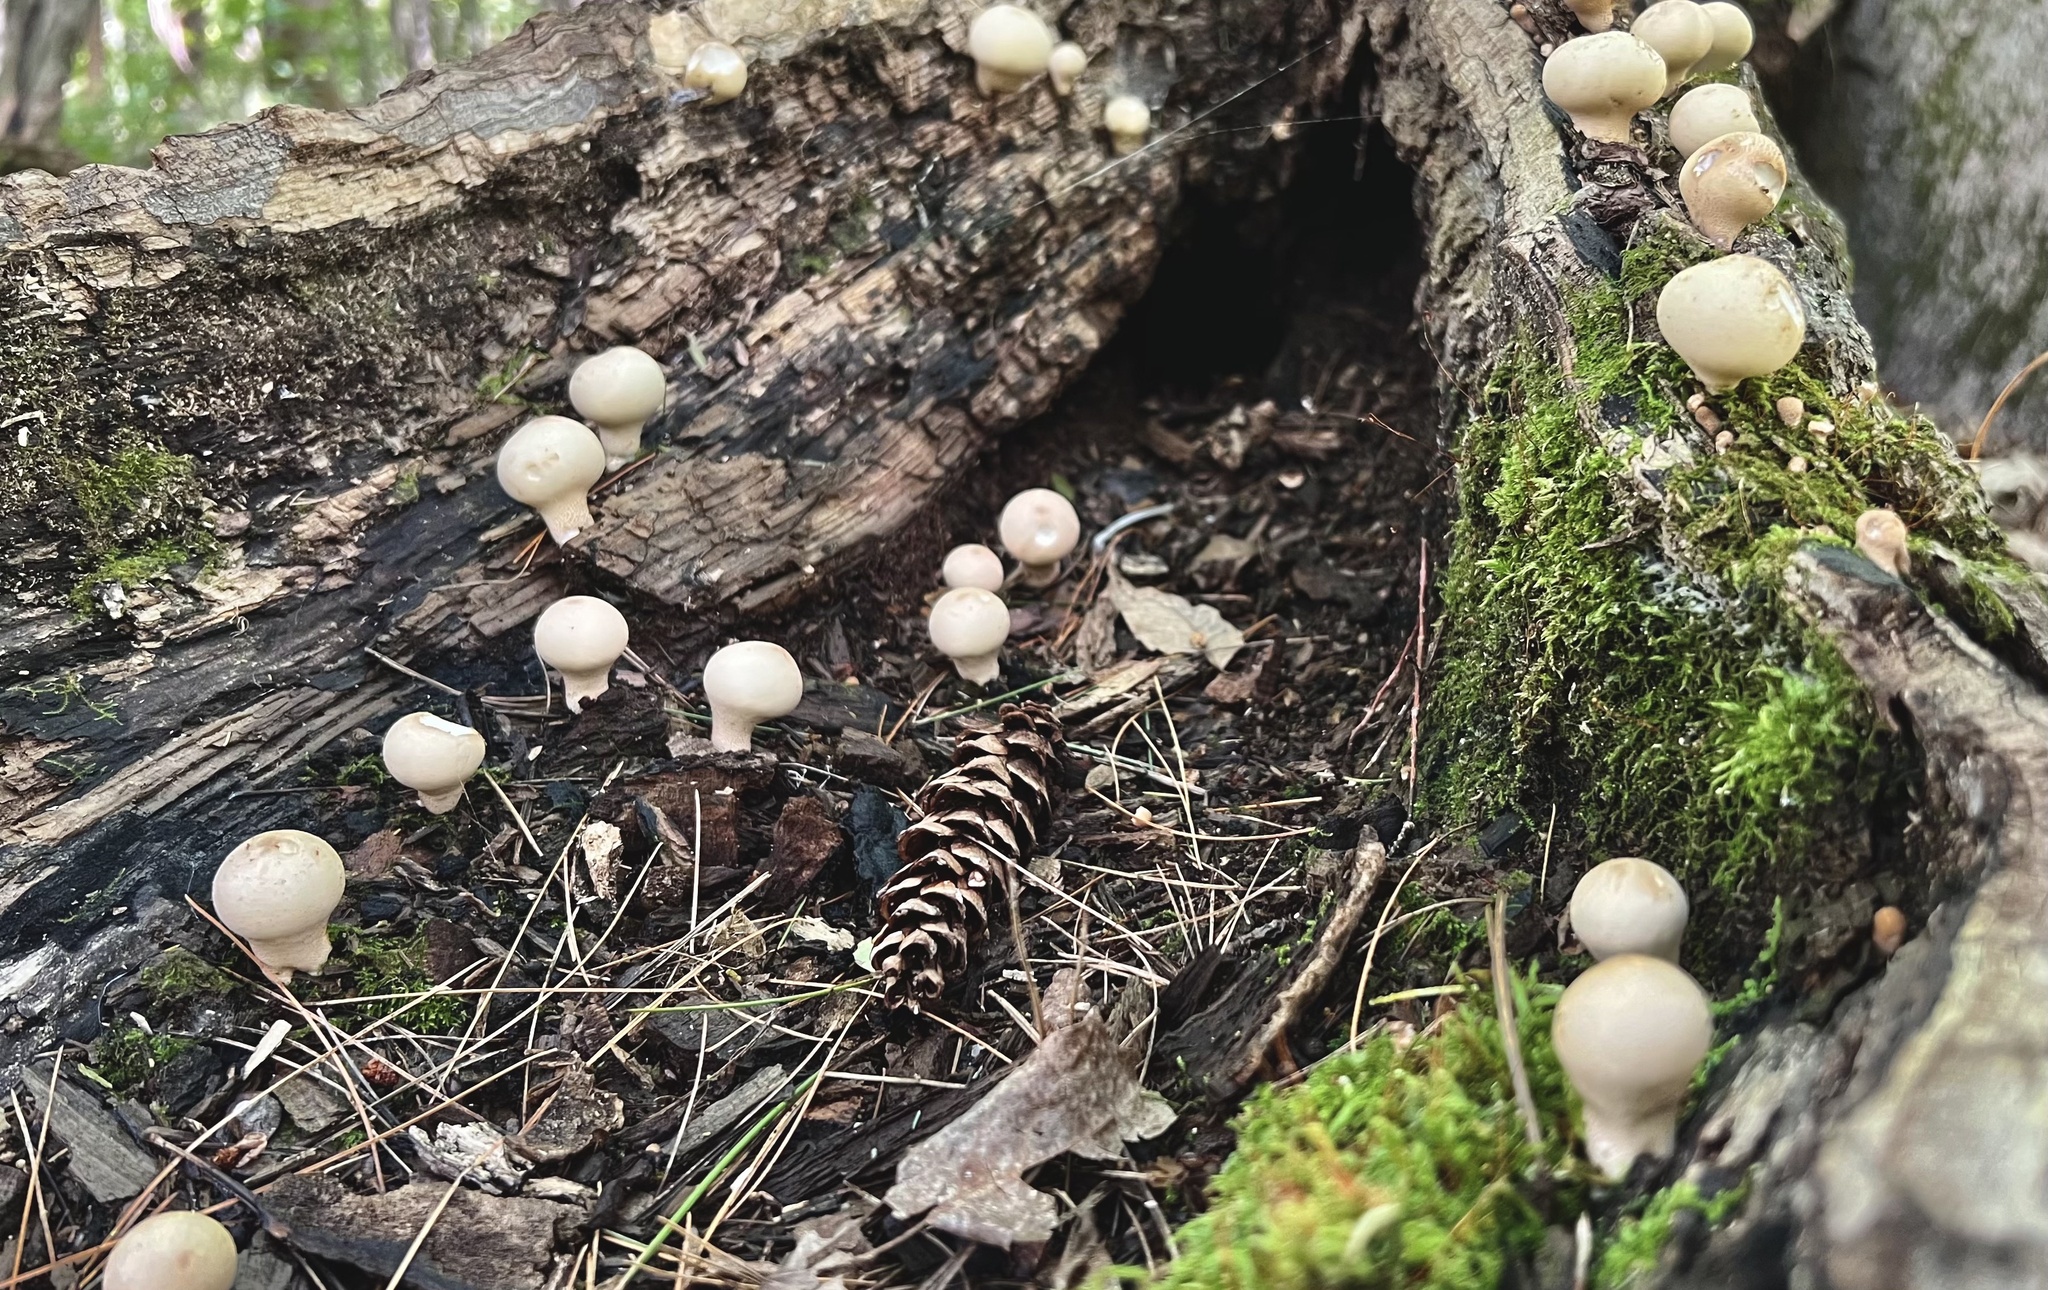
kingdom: Fungi
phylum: Basidiomycota
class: Agaricomycetes
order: Agaricales
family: Lycoperdaceae
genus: Apioperdon
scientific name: Apioperdon pyriforme
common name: Pear-shaped puffball
